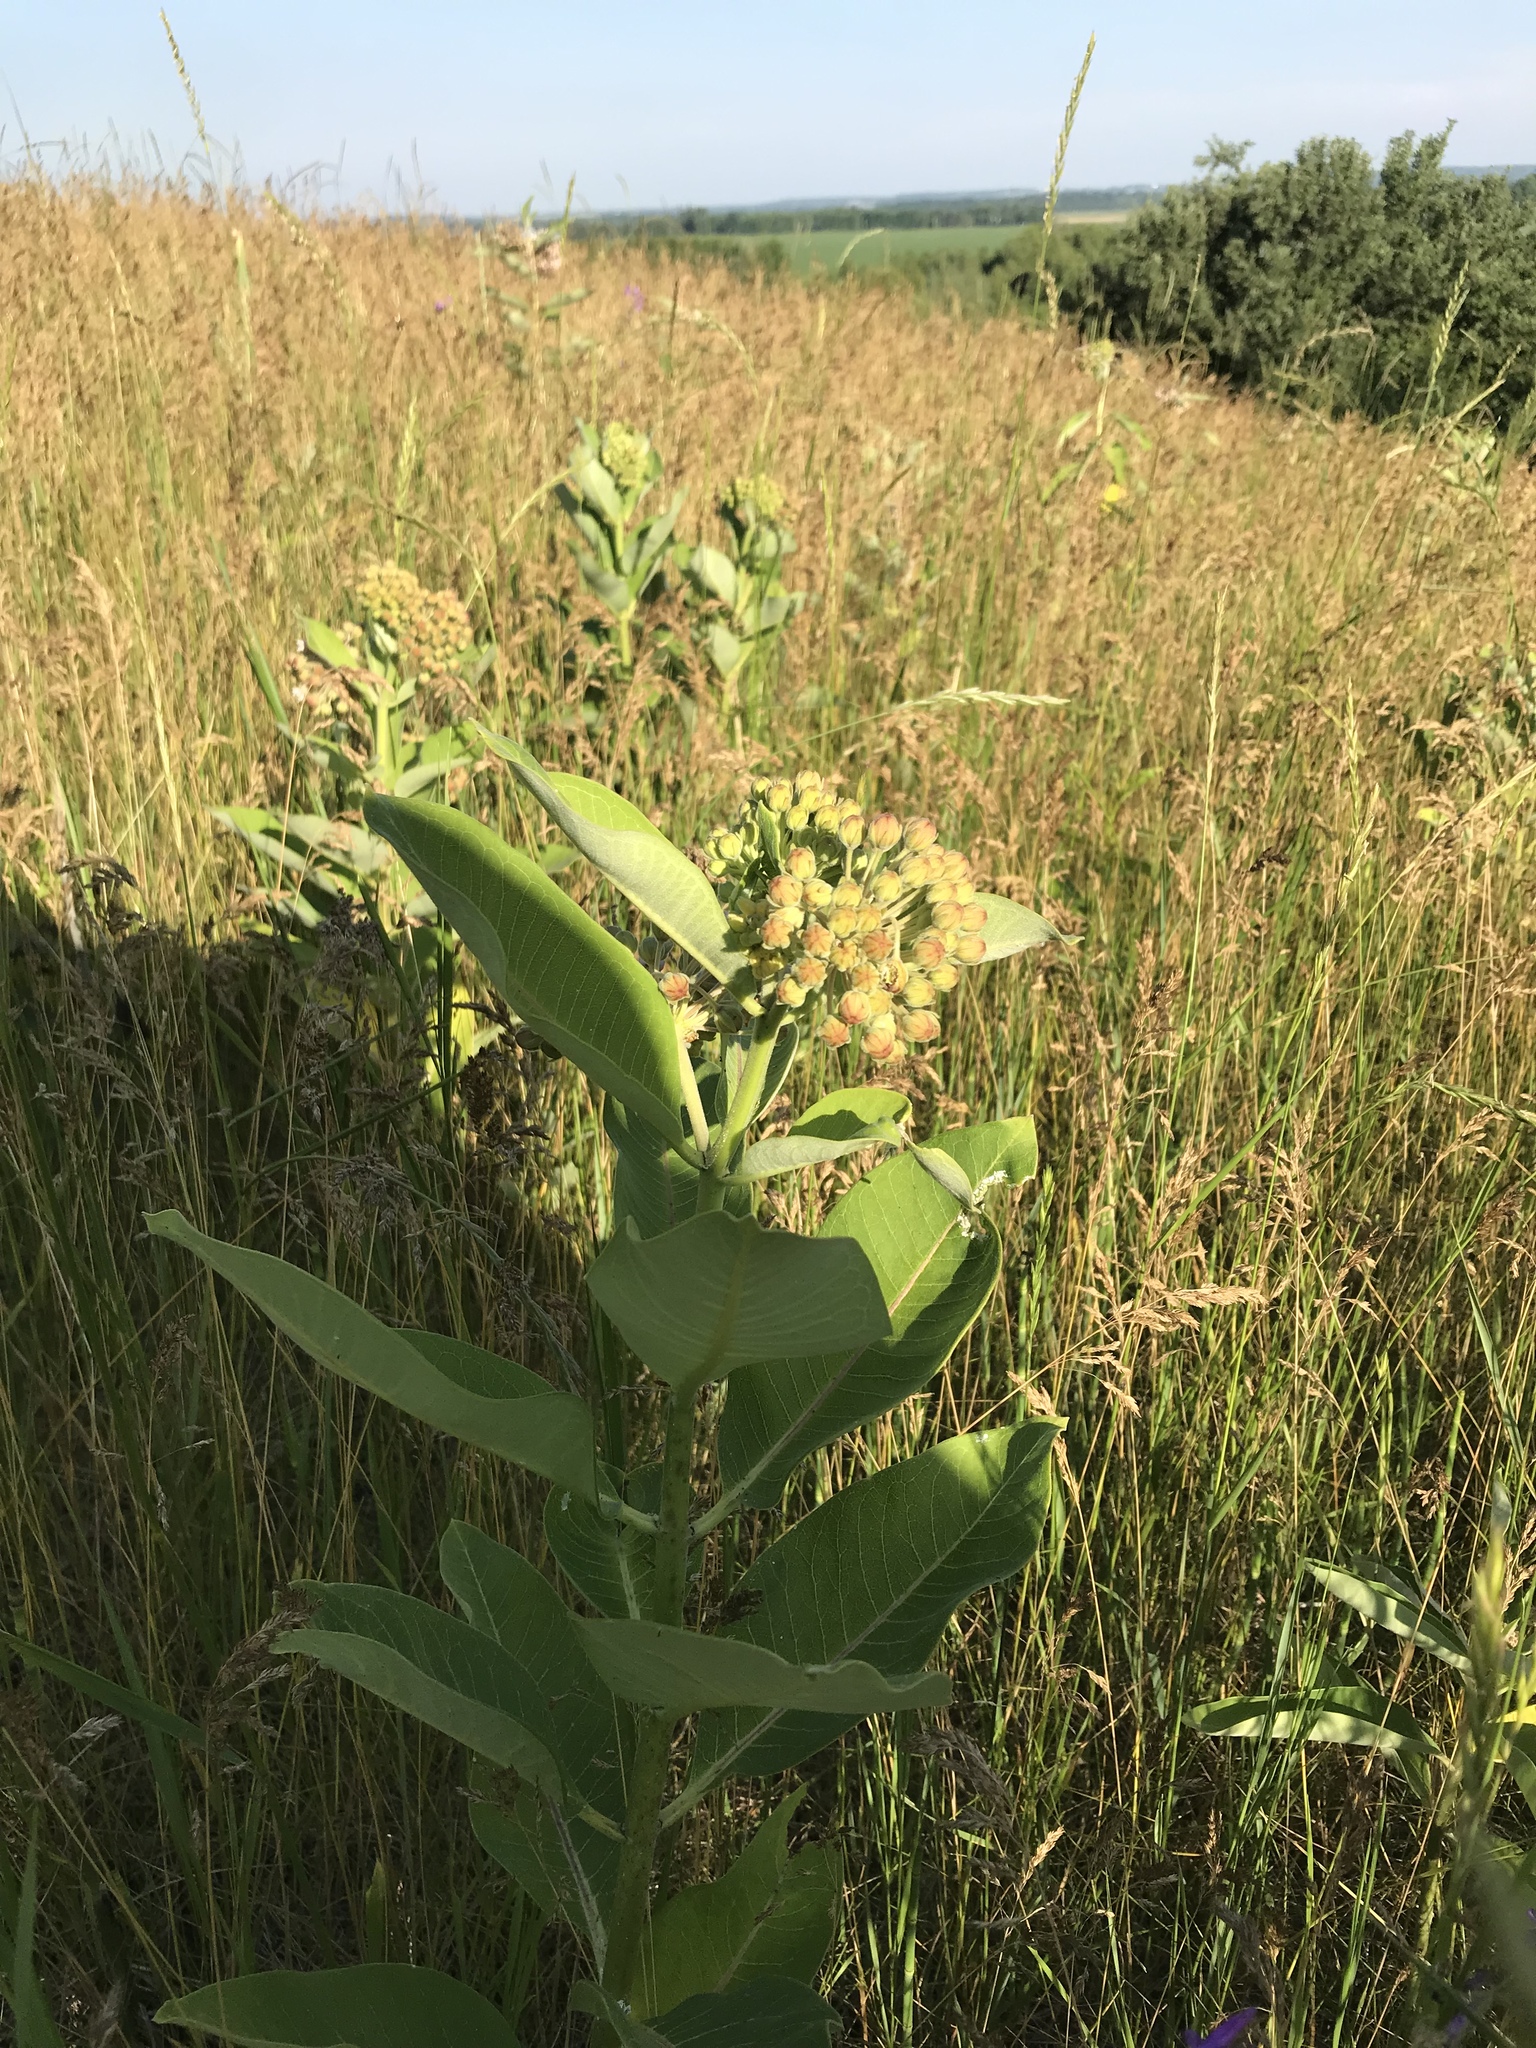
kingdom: Plantae
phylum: Tracheophyta
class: Magnoliopsida
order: Gentianales
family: Apocynaceae
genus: Asclepias
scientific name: Asclepias syriaca
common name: Common milkweed
